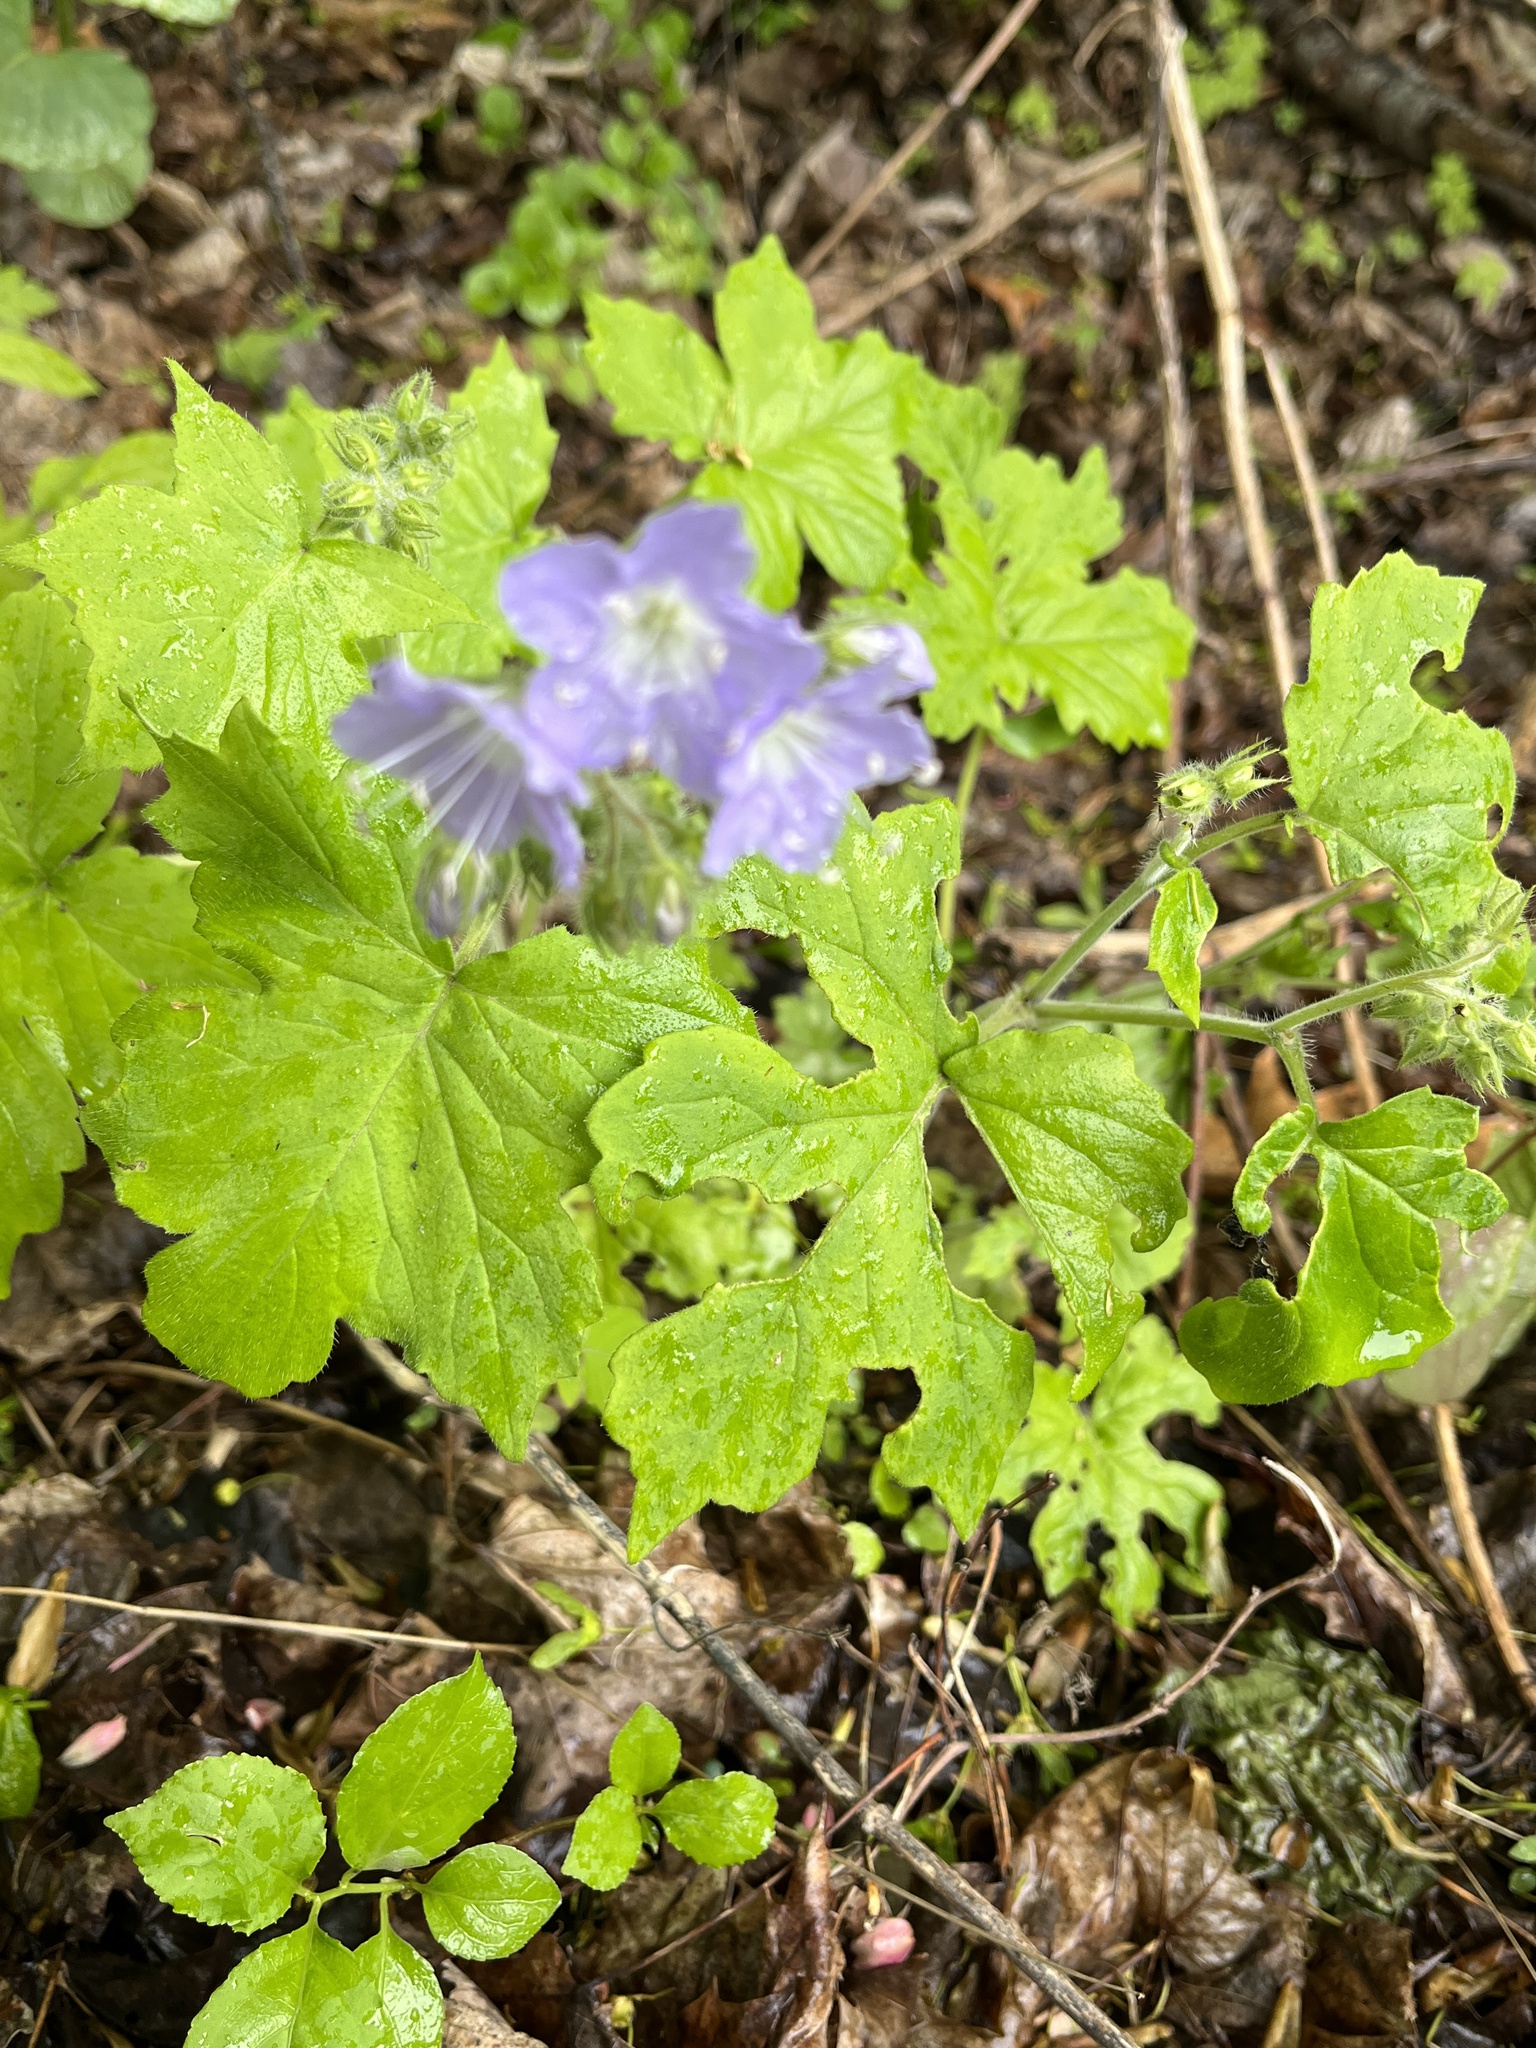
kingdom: Plantae
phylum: Tracheophyta
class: Magnoliopsida
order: Boraginales
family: Hydrophyllaceae
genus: Hydrophyllum
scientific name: Hydrophyllum appendiculatum
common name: Appendaged waterleaf
